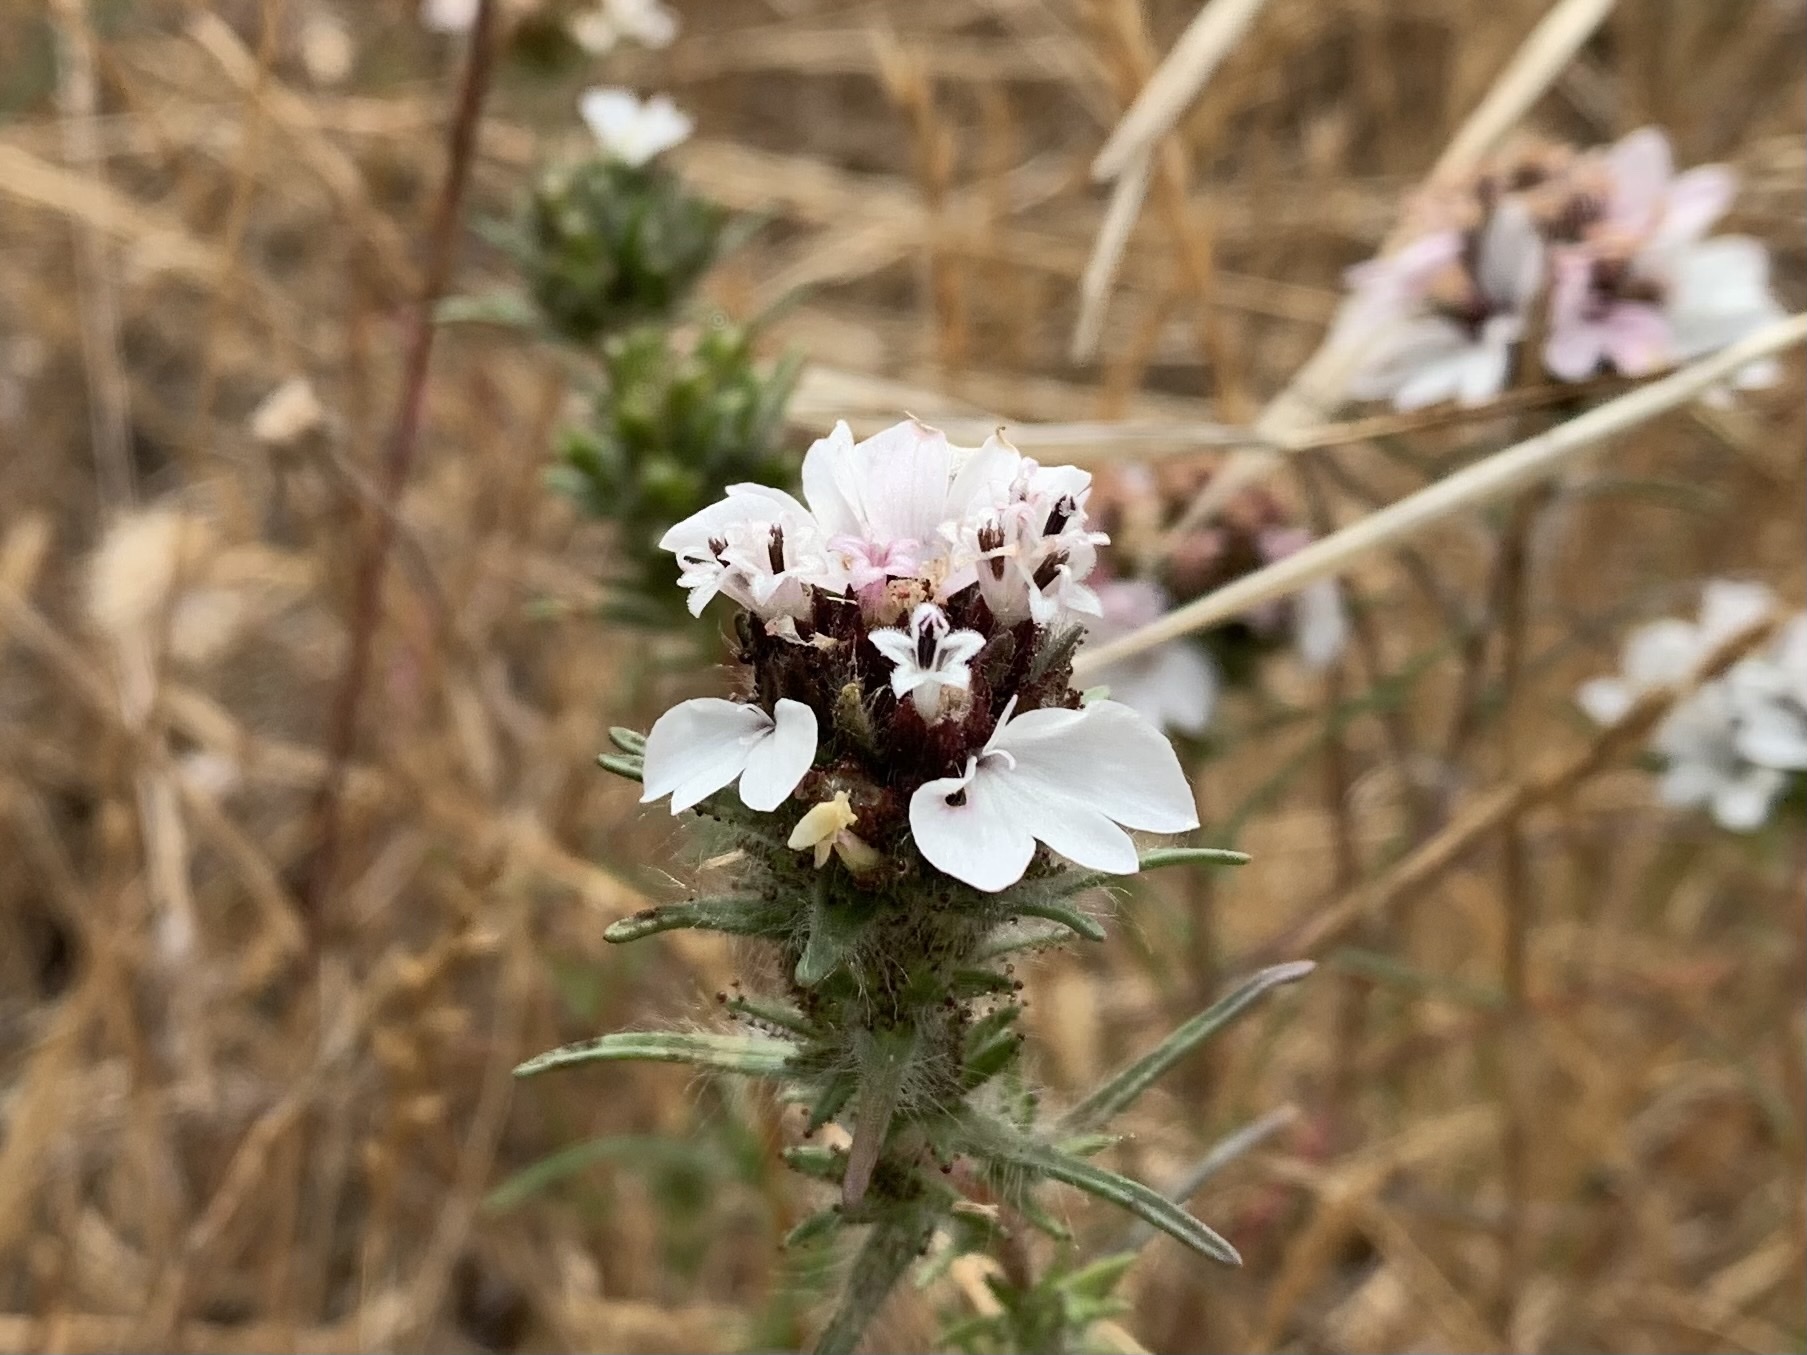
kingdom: Plantae
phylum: Tracheophyta
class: Magnoliopsida
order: Asterales
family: Asteraceae
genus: Calycadenia
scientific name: Calycadenia multiglandulosa
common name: Sticky calycadenia
